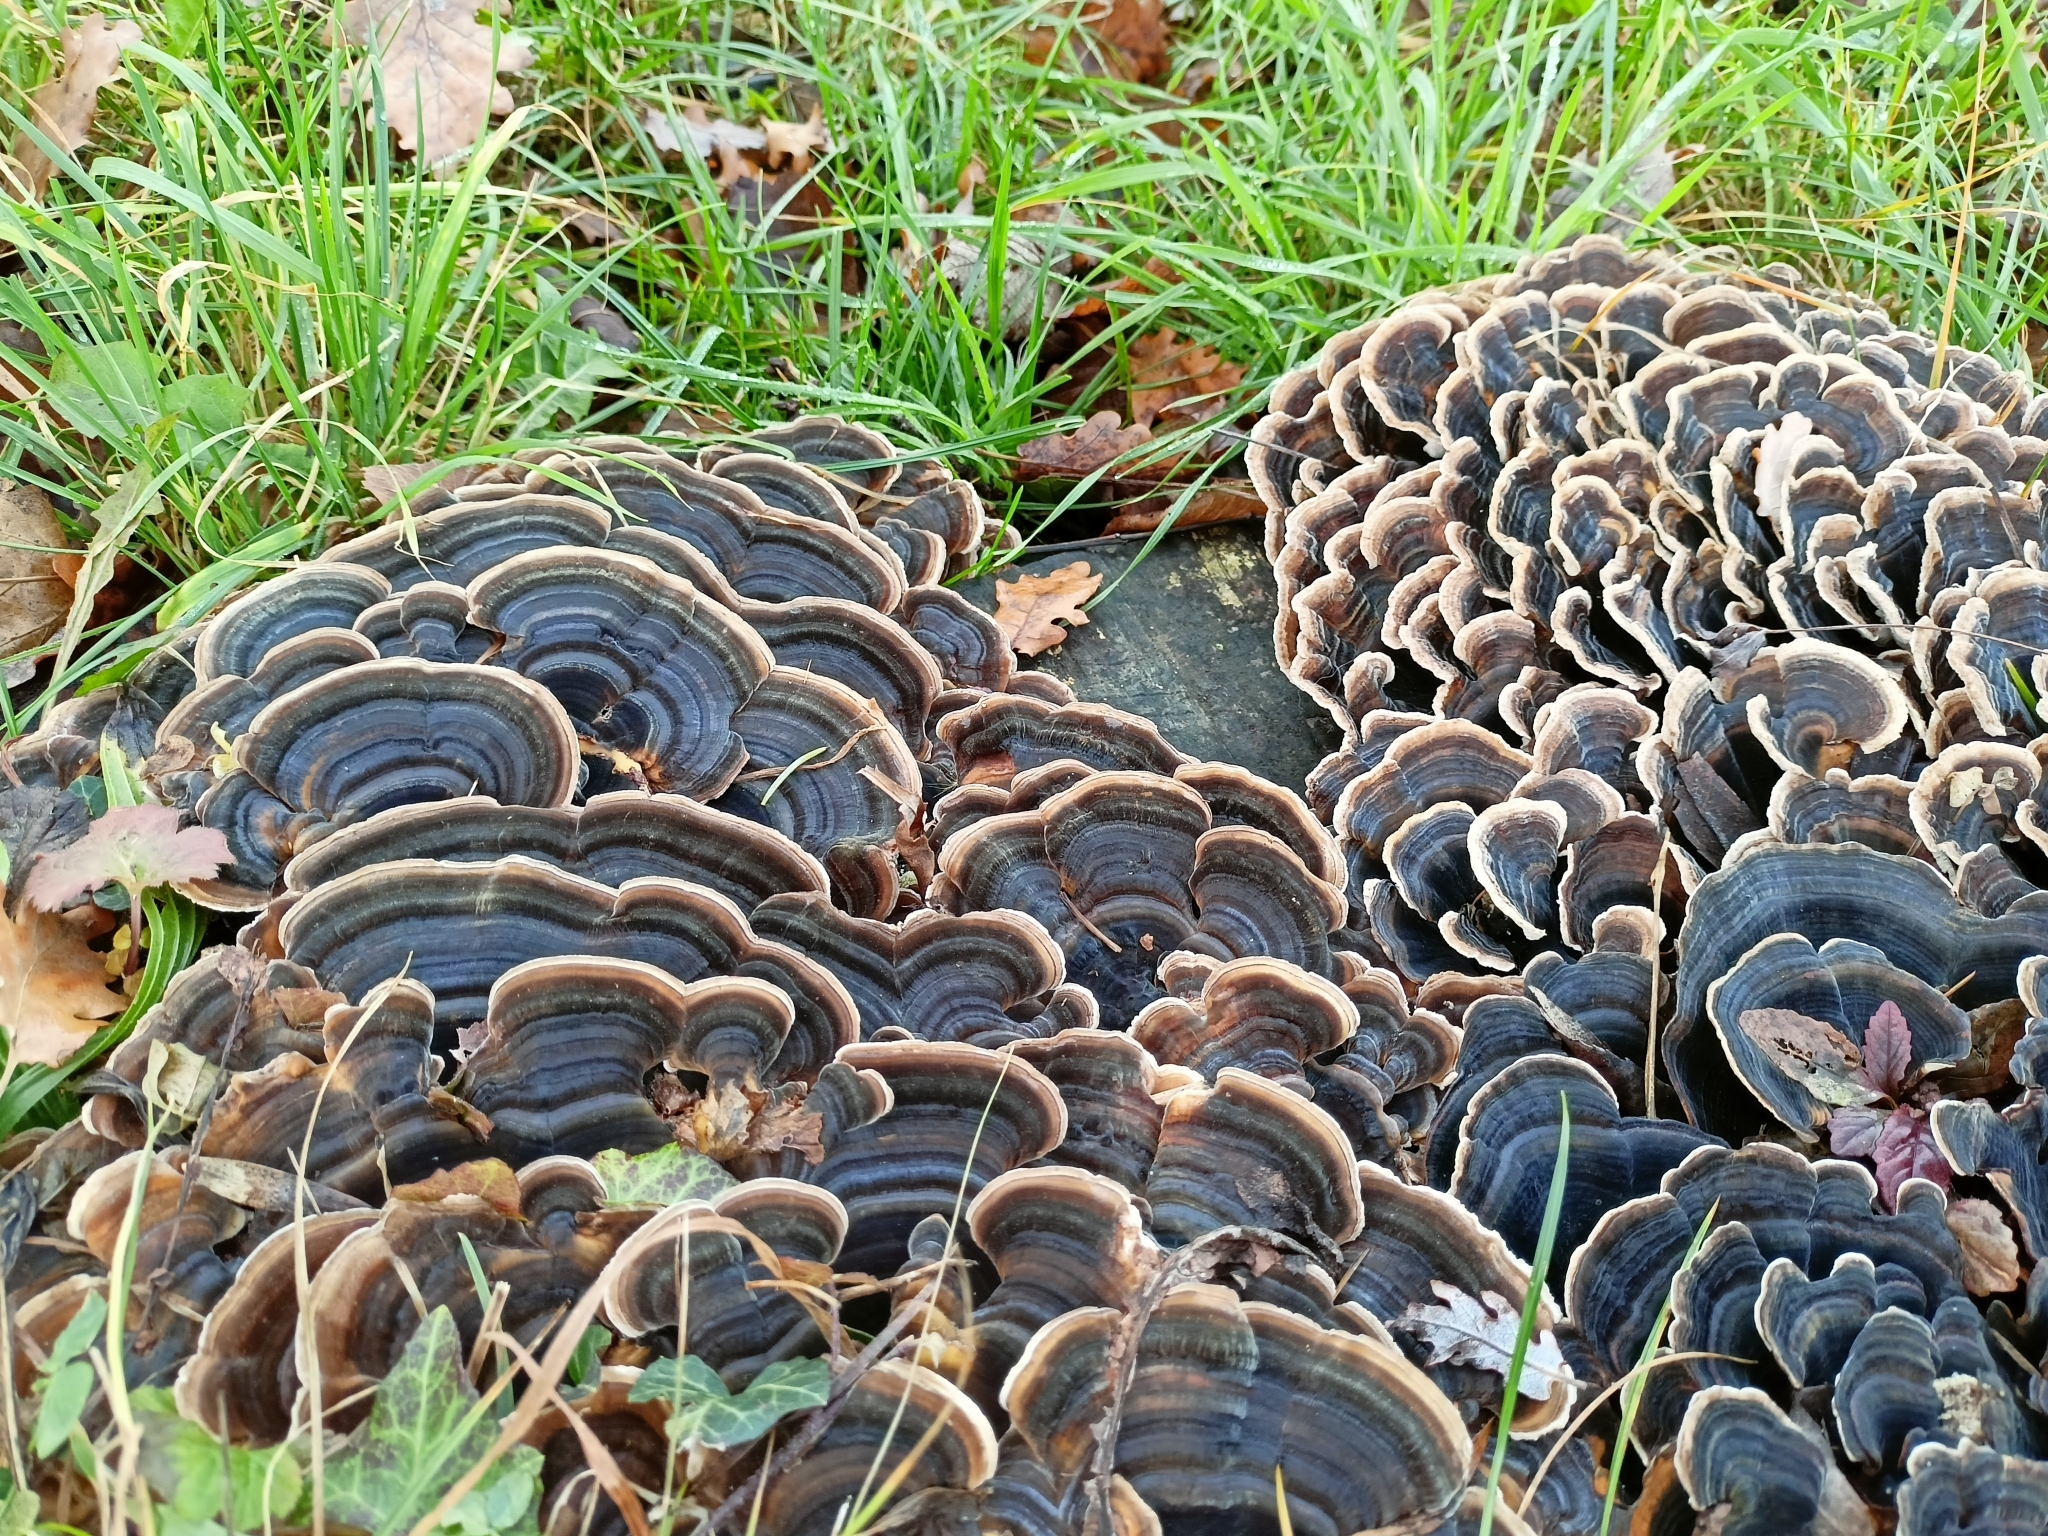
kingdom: Fungi
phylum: Basidiomycota
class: Agaricomycetes
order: Polyporales
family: Polyporaceae
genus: Trametes
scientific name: Trametes versicolor
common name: Turkeytail
